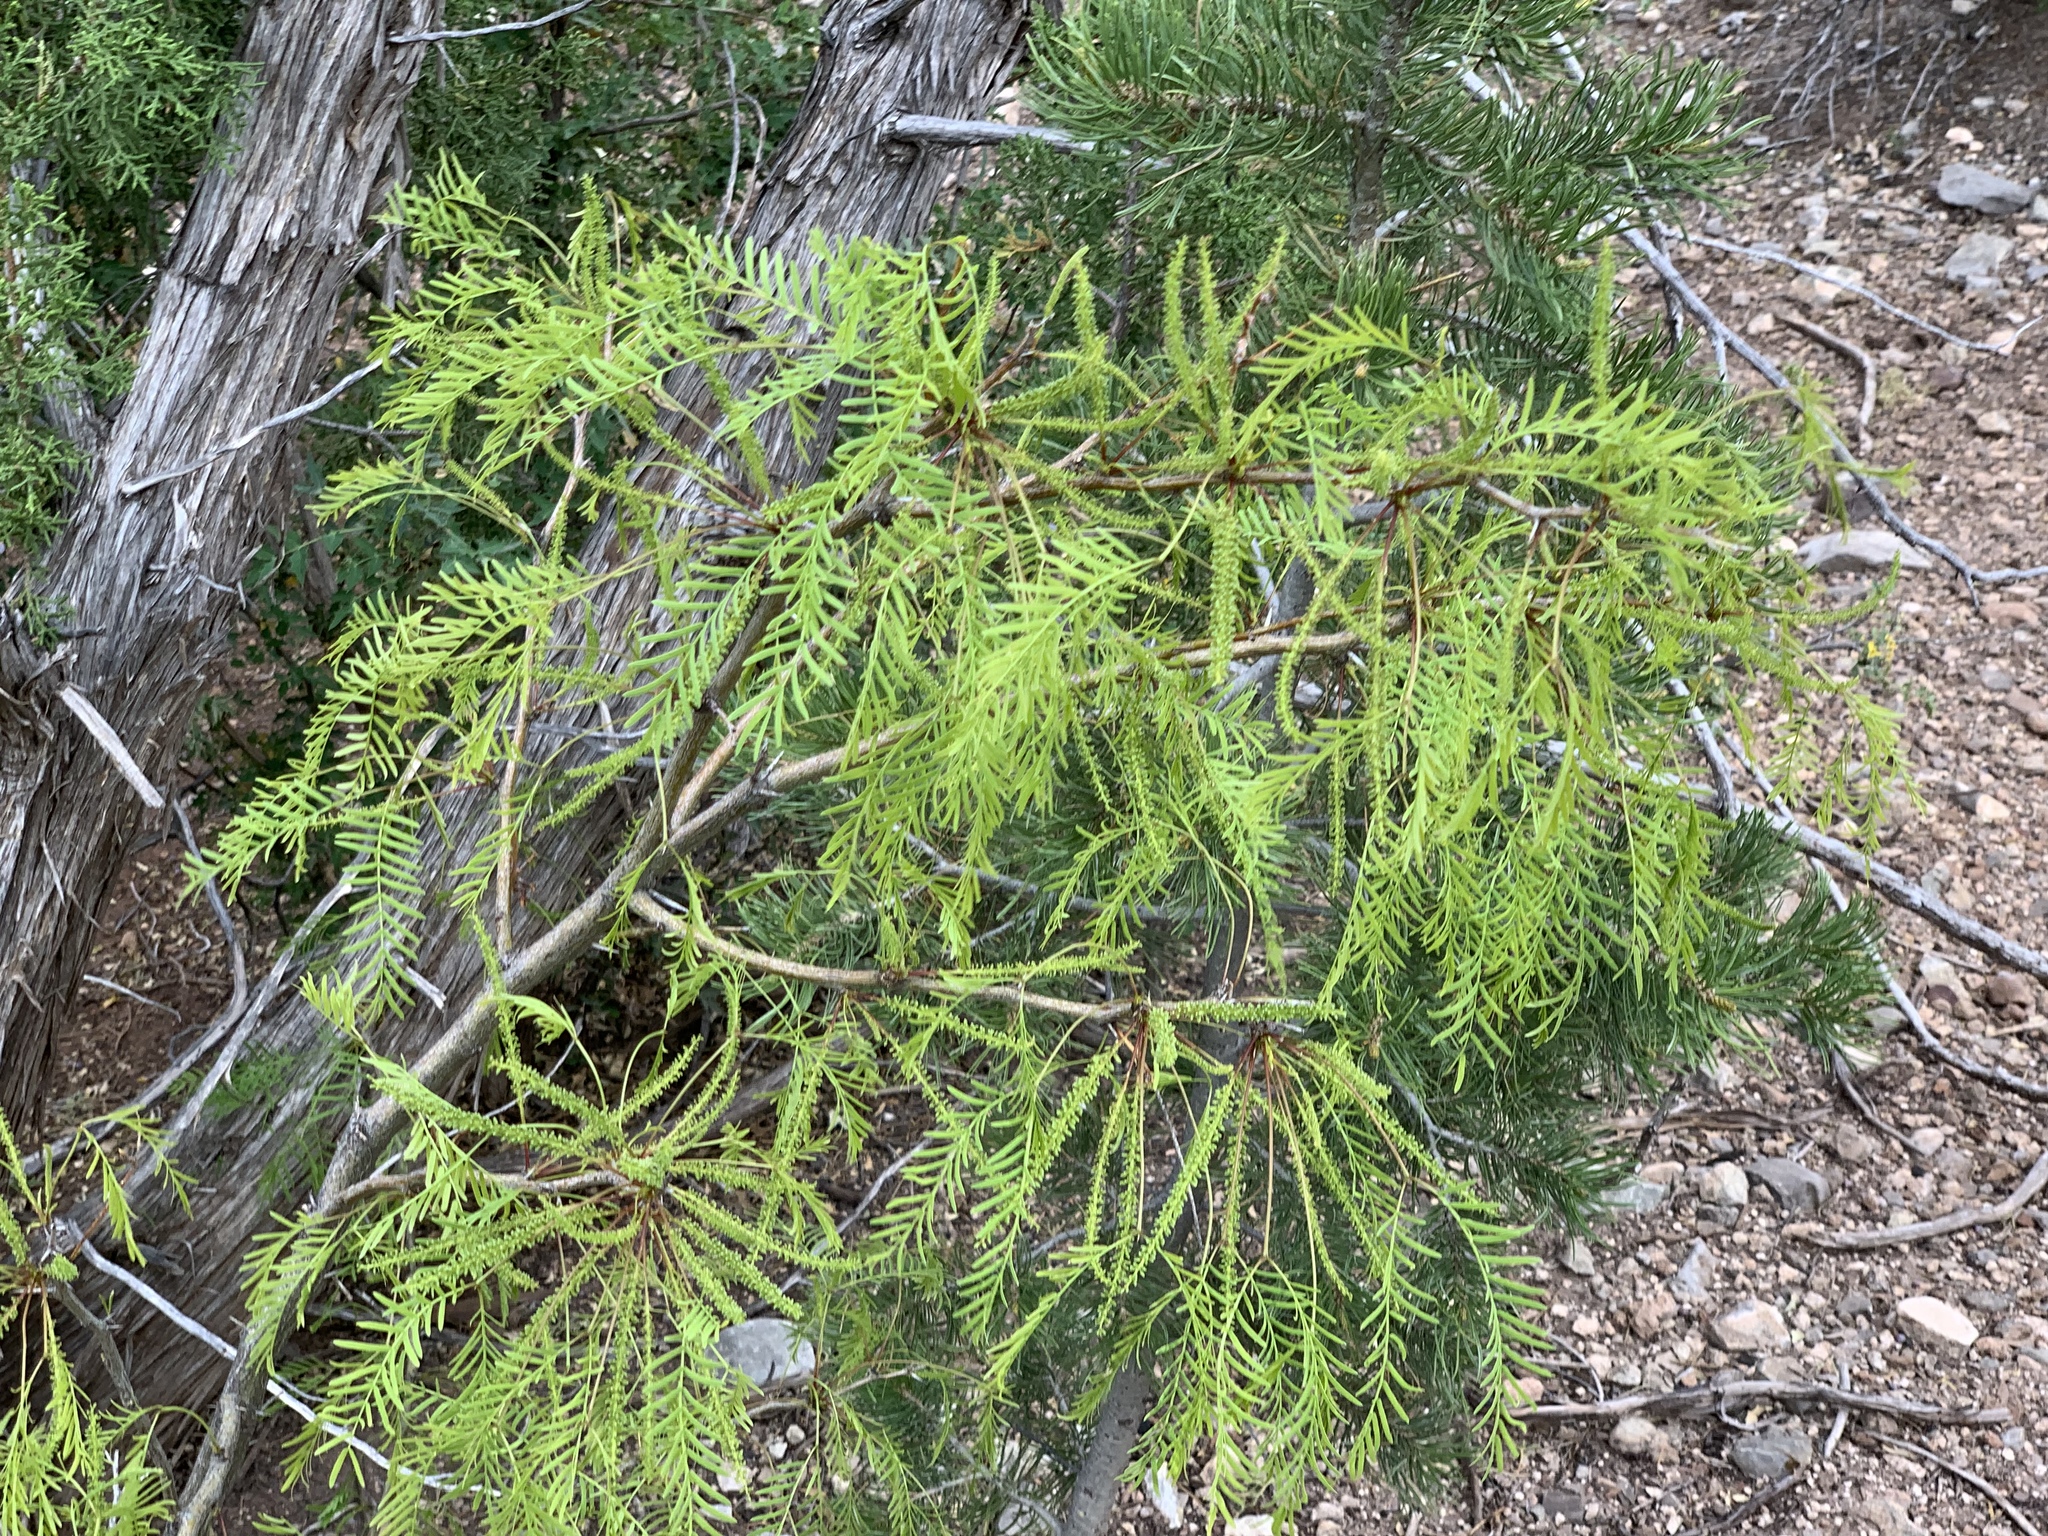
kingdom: Plantae
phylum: Tracheophyta
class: Magnoliopsida
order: Fabales
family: Fabaceae
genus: Prosopis
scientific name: Prosopis glandulosa
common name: Honey mesquite
